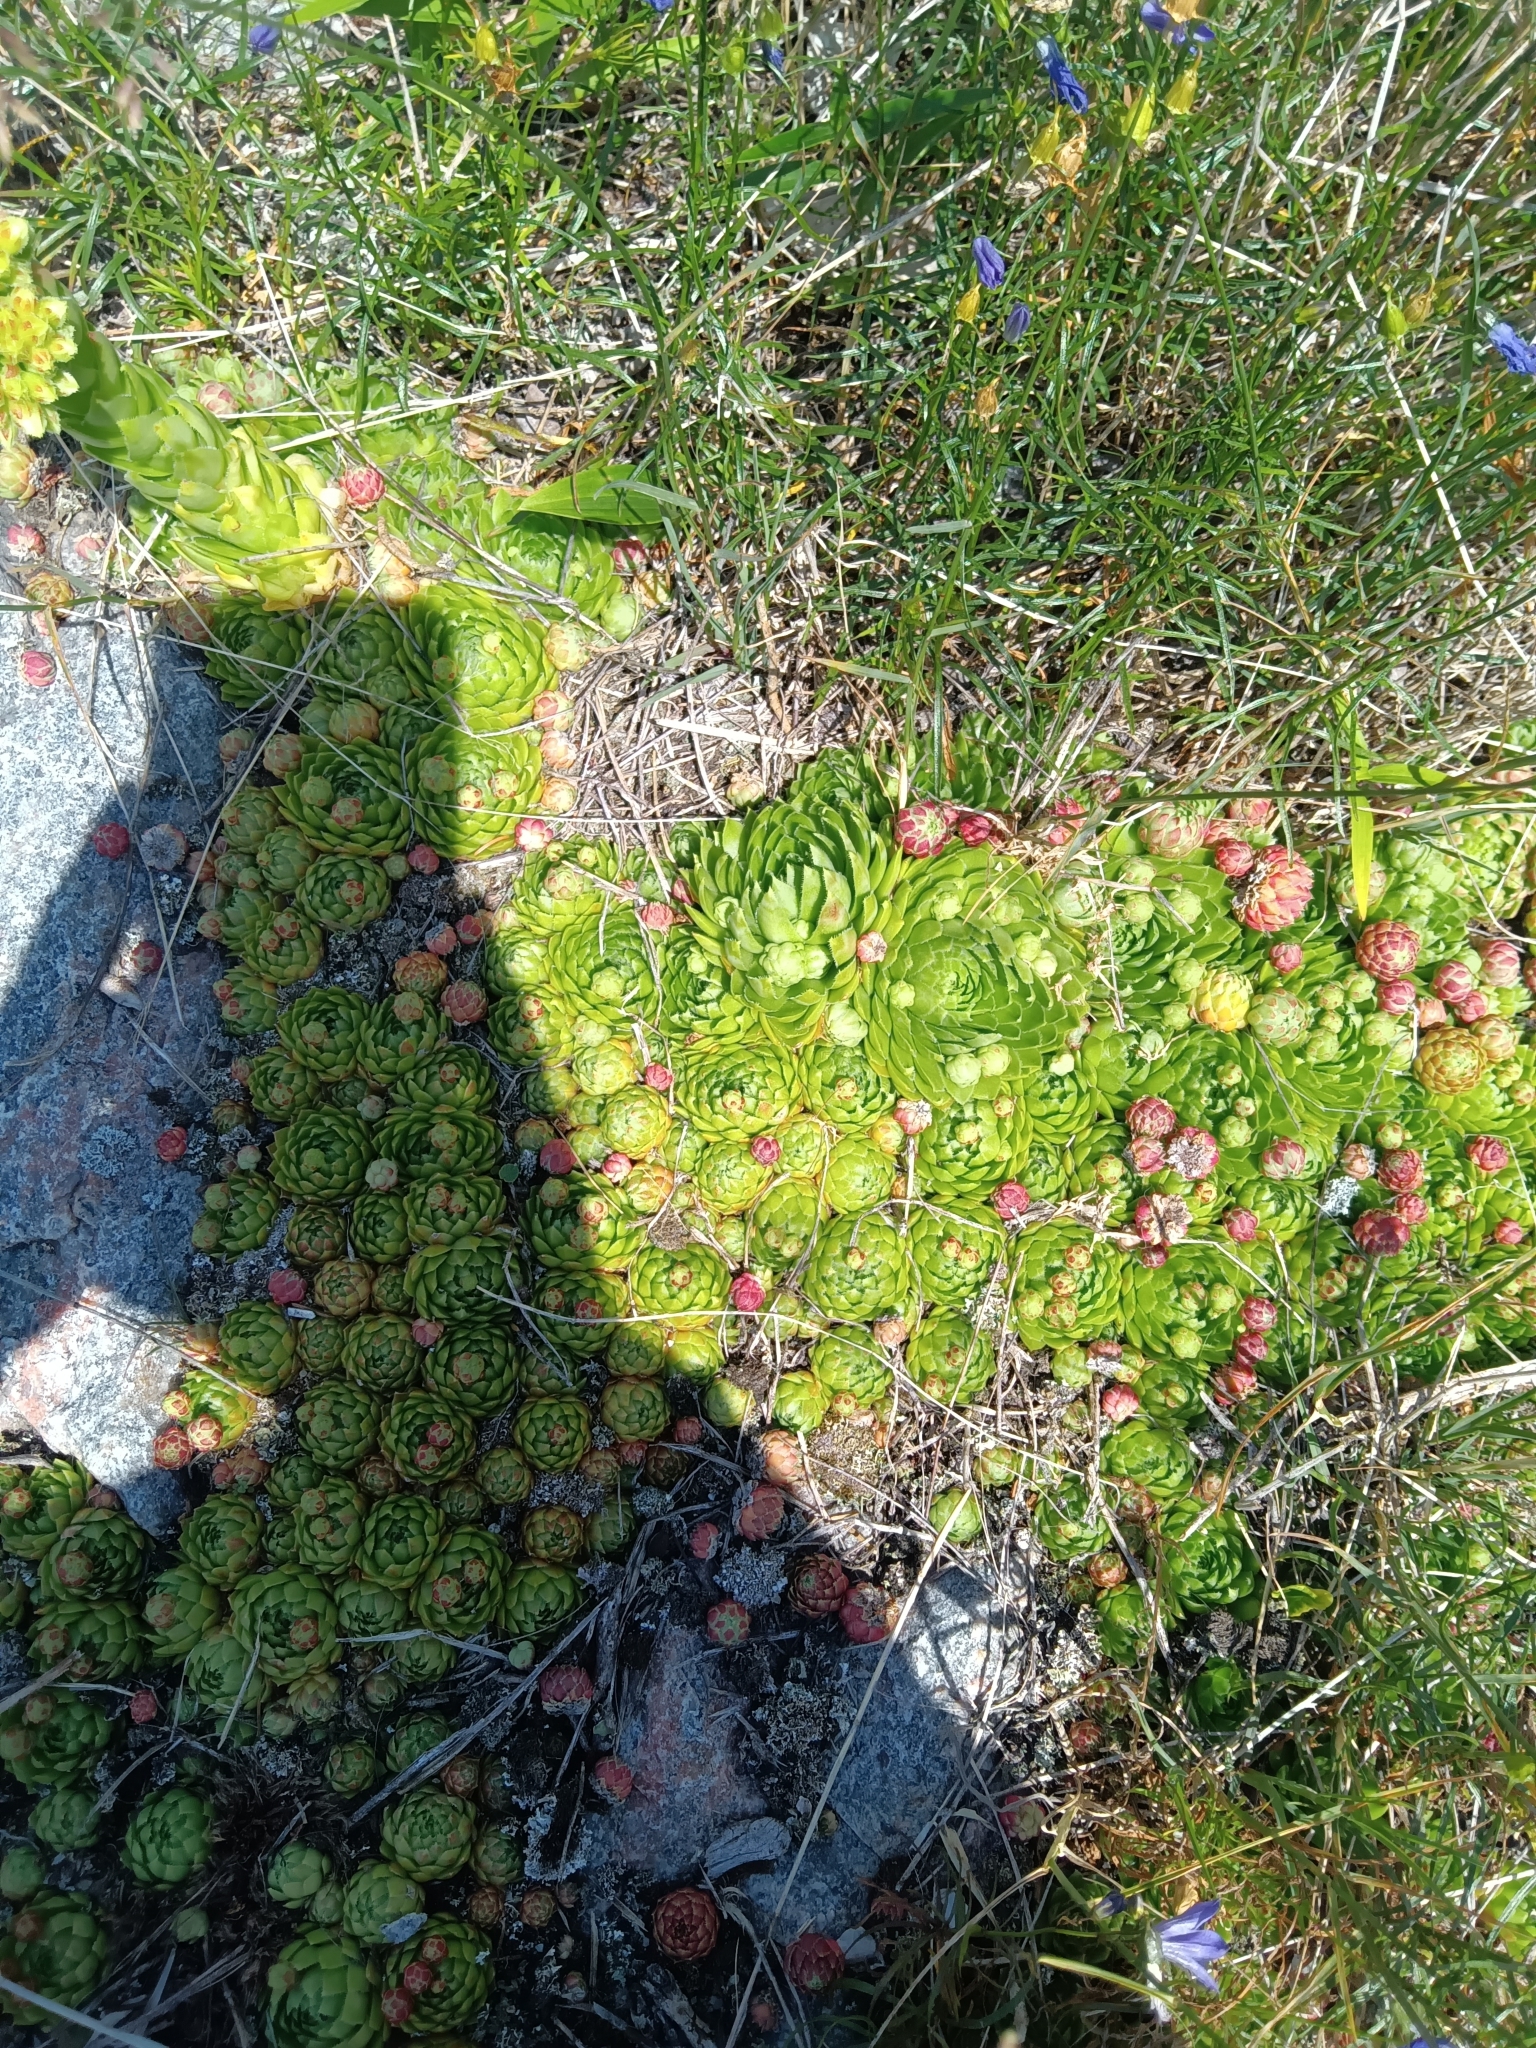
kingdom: Plantae
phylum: Tracheophyta
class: Magnoliopsida
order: Saxifragales
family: Crassulaceae
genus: Sempervivum
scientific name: Sempervivum globiferum
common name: Rolling hen-and-chicks
